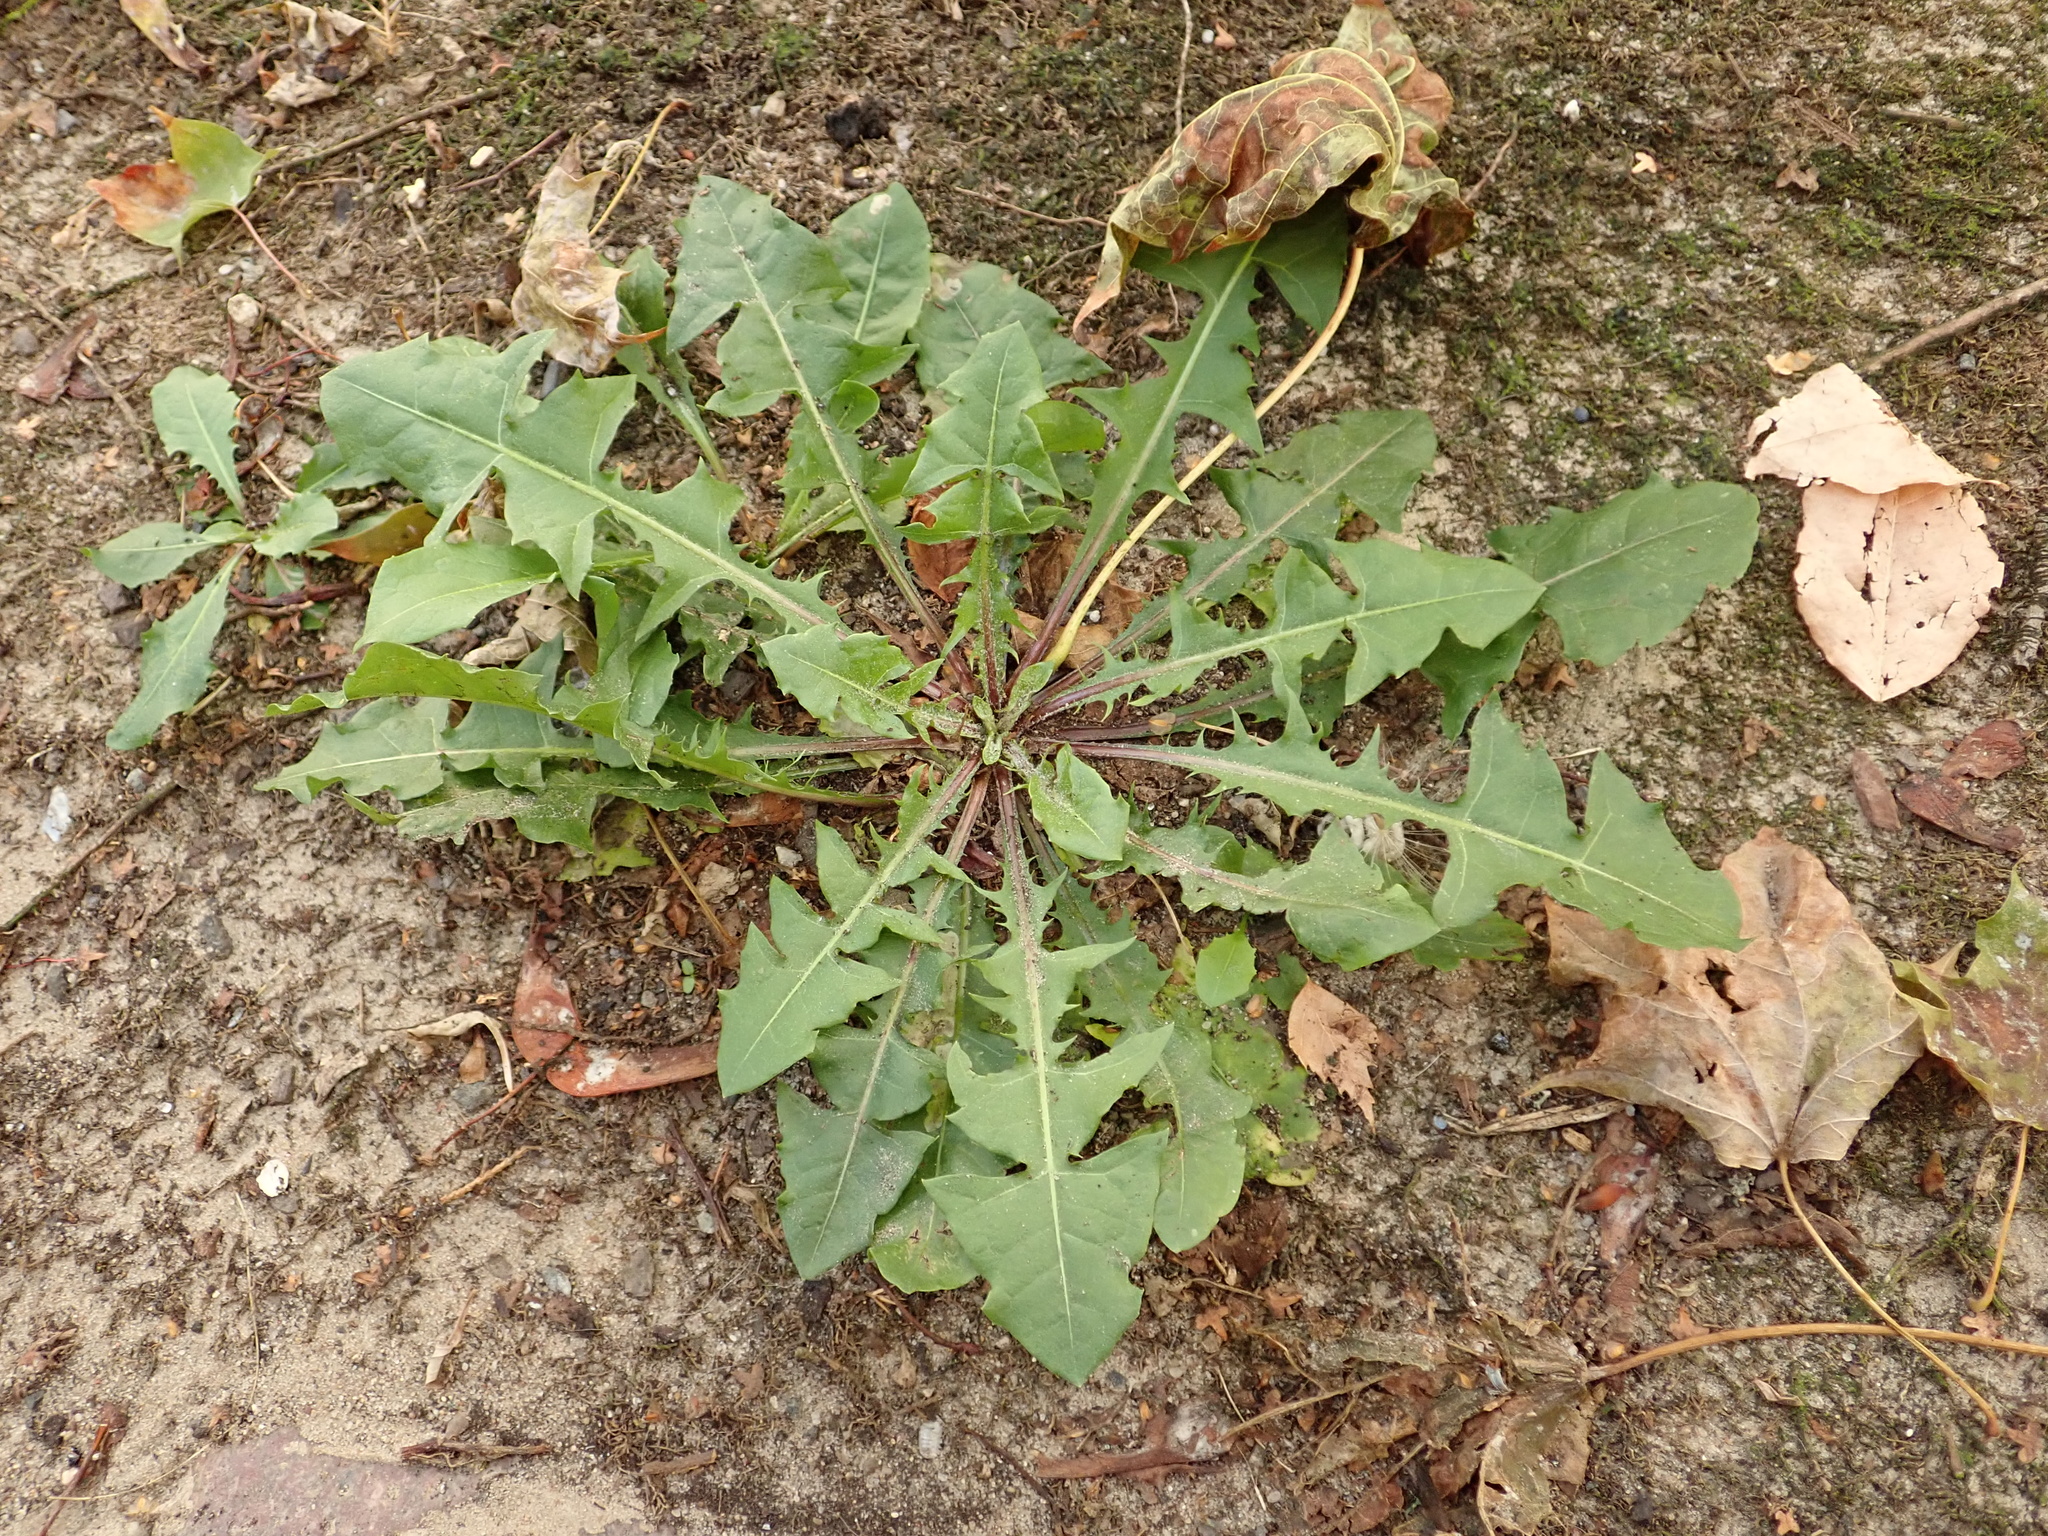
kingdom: Plantae
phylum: Tracheophyta
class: Magnoliopsida
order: Asterales
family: Asteraceae
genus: Taraxacum
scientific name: Taraxacum officinale
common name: Common dandelion
